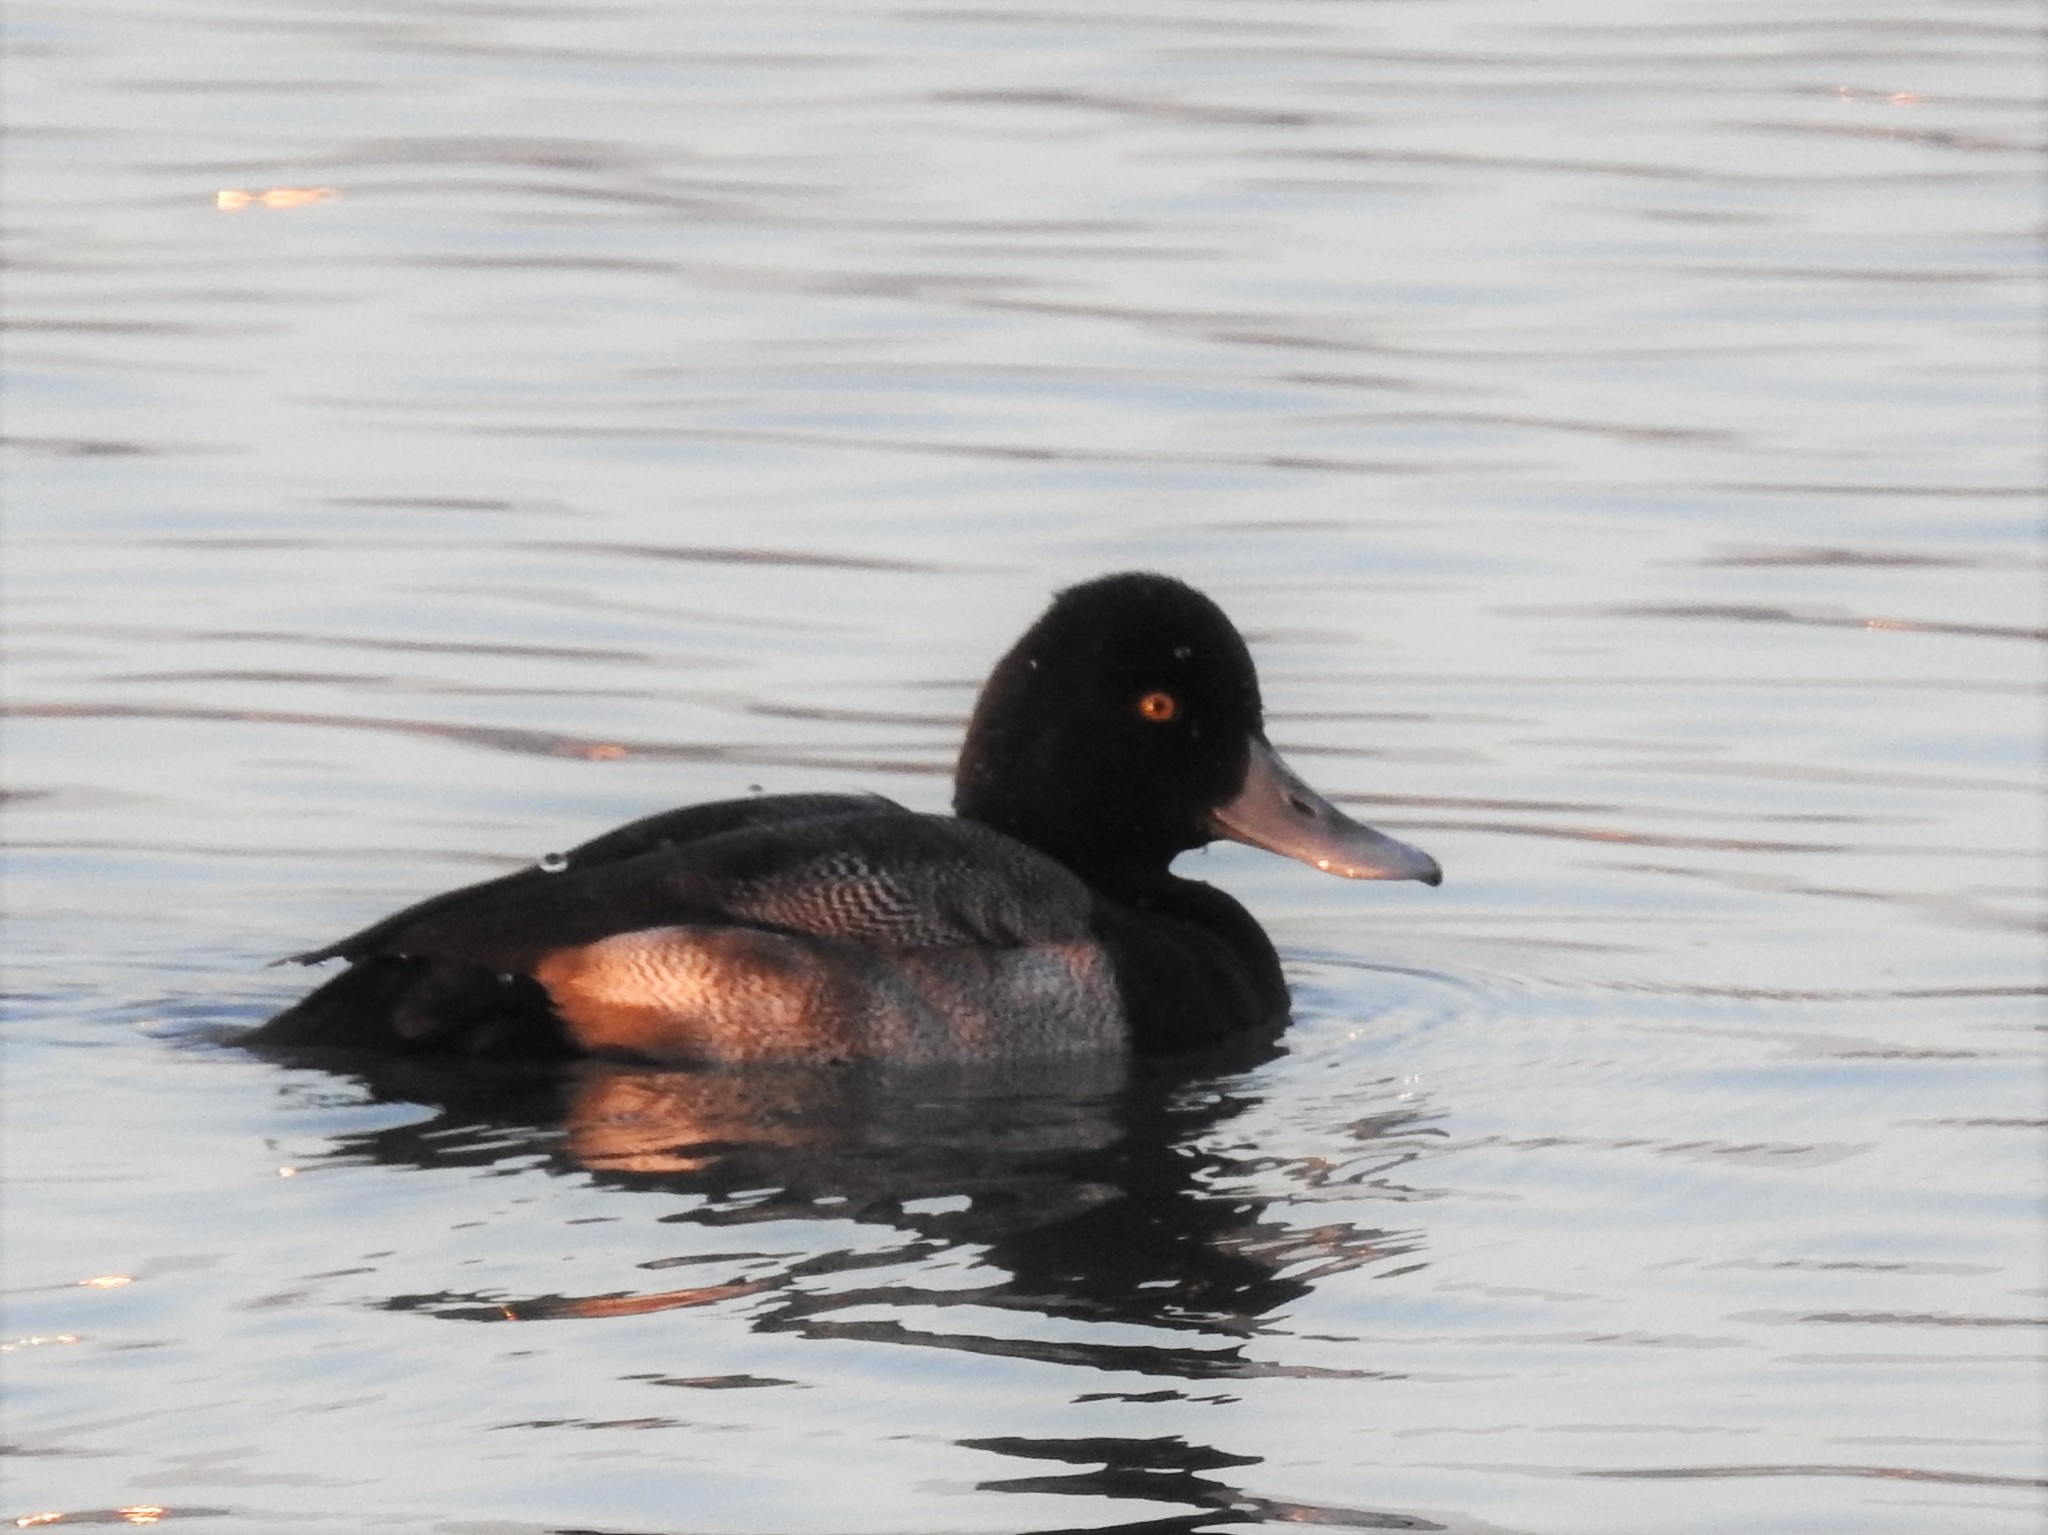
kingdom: Animalia
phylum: Chordata
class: Aves
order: Anseriformes
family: Anatidae
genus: Aythya
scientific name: Aythya affinis
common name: Lesser scaup
